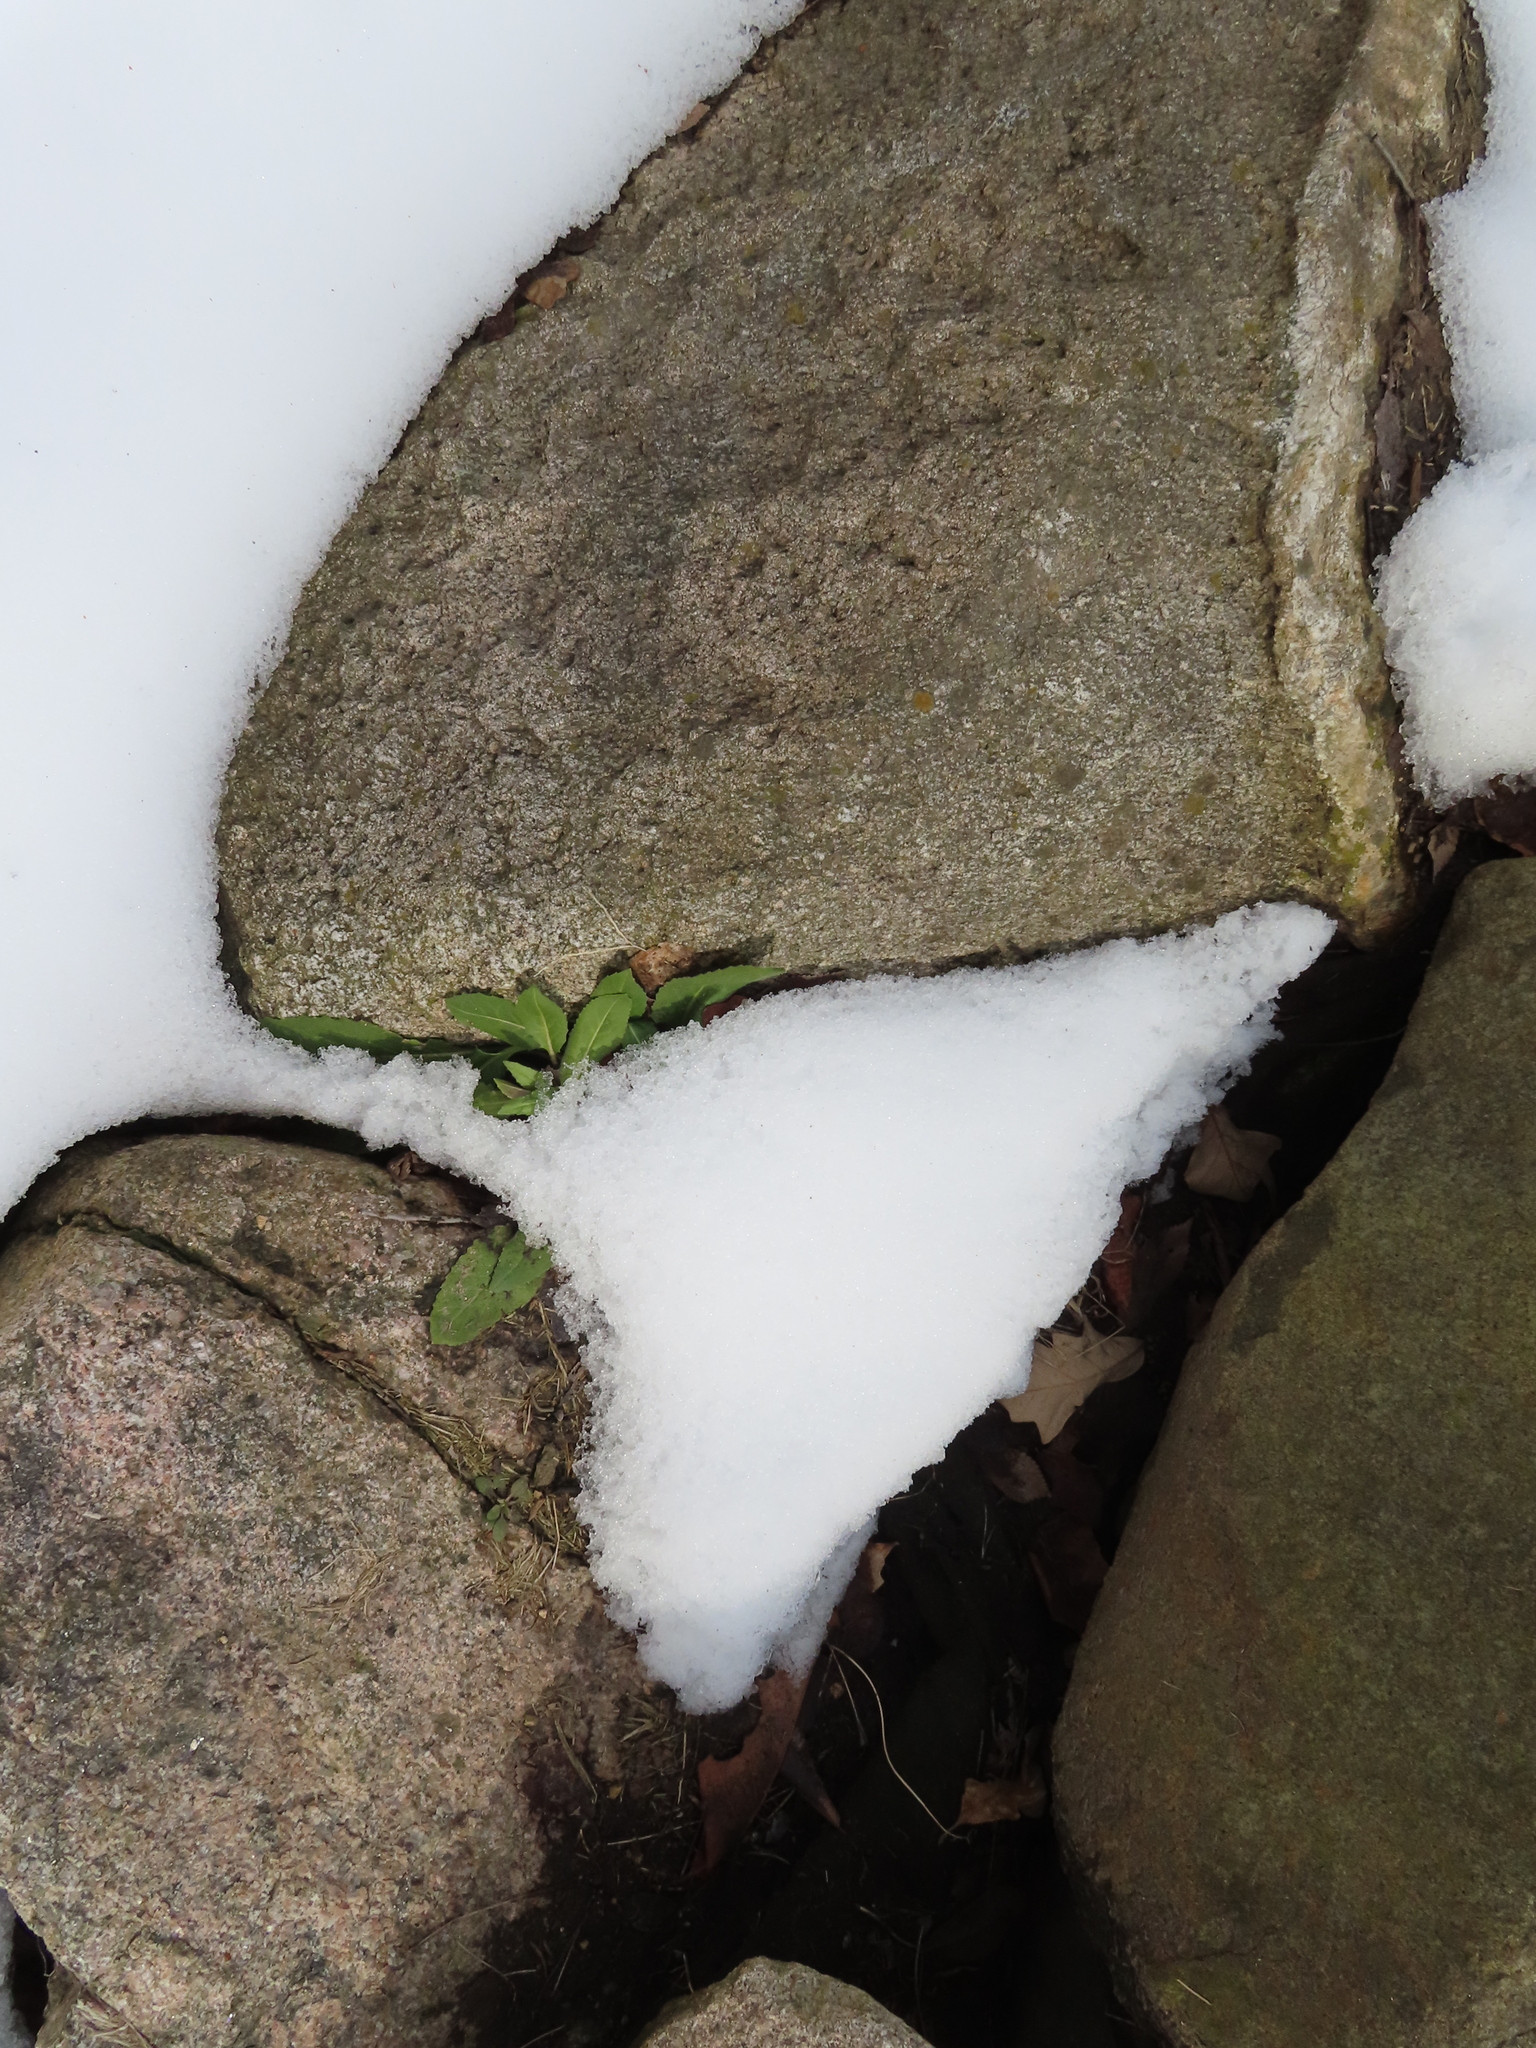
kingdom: Plantae
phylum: Tracheophyta
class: Magnoliopsida
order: Brassicales
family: Brassicaceae
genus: Hesperis
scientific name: Hesperis matronalis
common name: Dame's-violet
